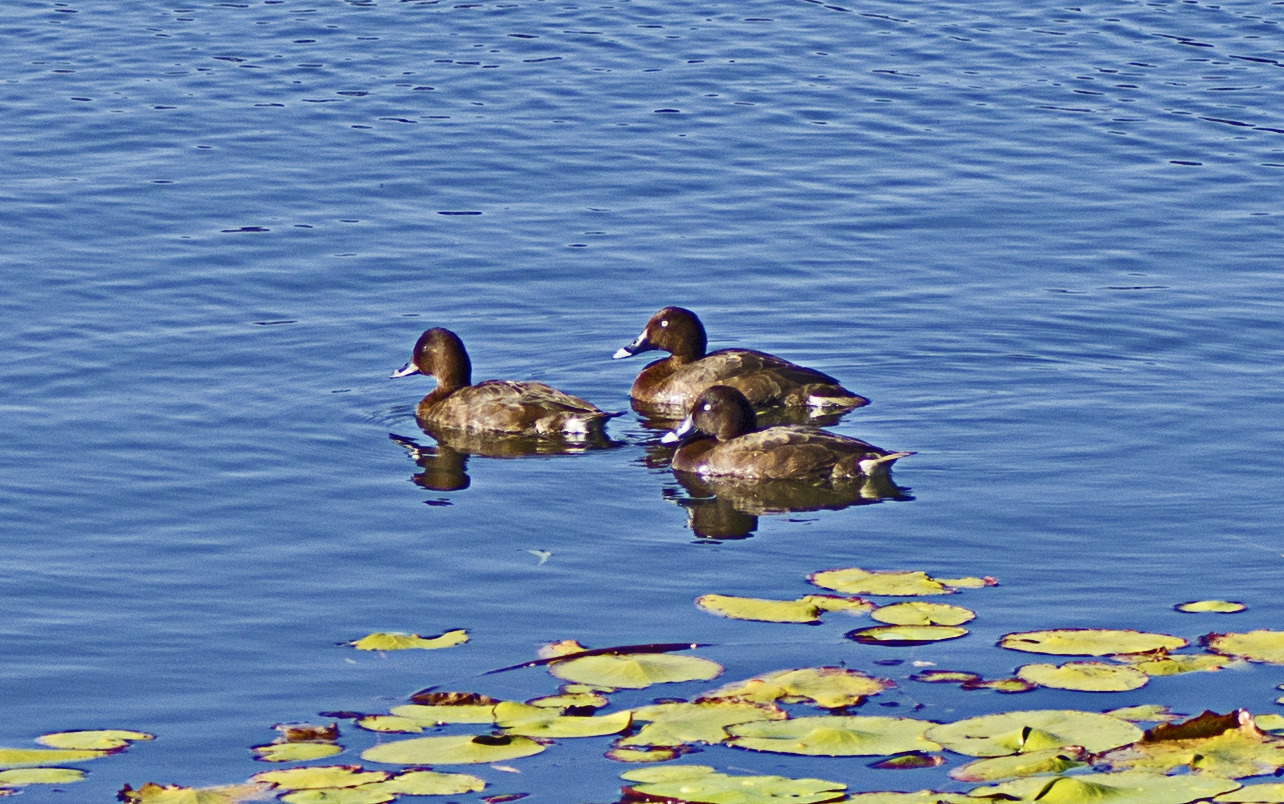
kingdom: Animalia
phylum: Chordata
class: Aves
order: Anseriformes
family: Anatidae
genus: Aythya
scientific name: Aythya australis
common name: Hardhead
